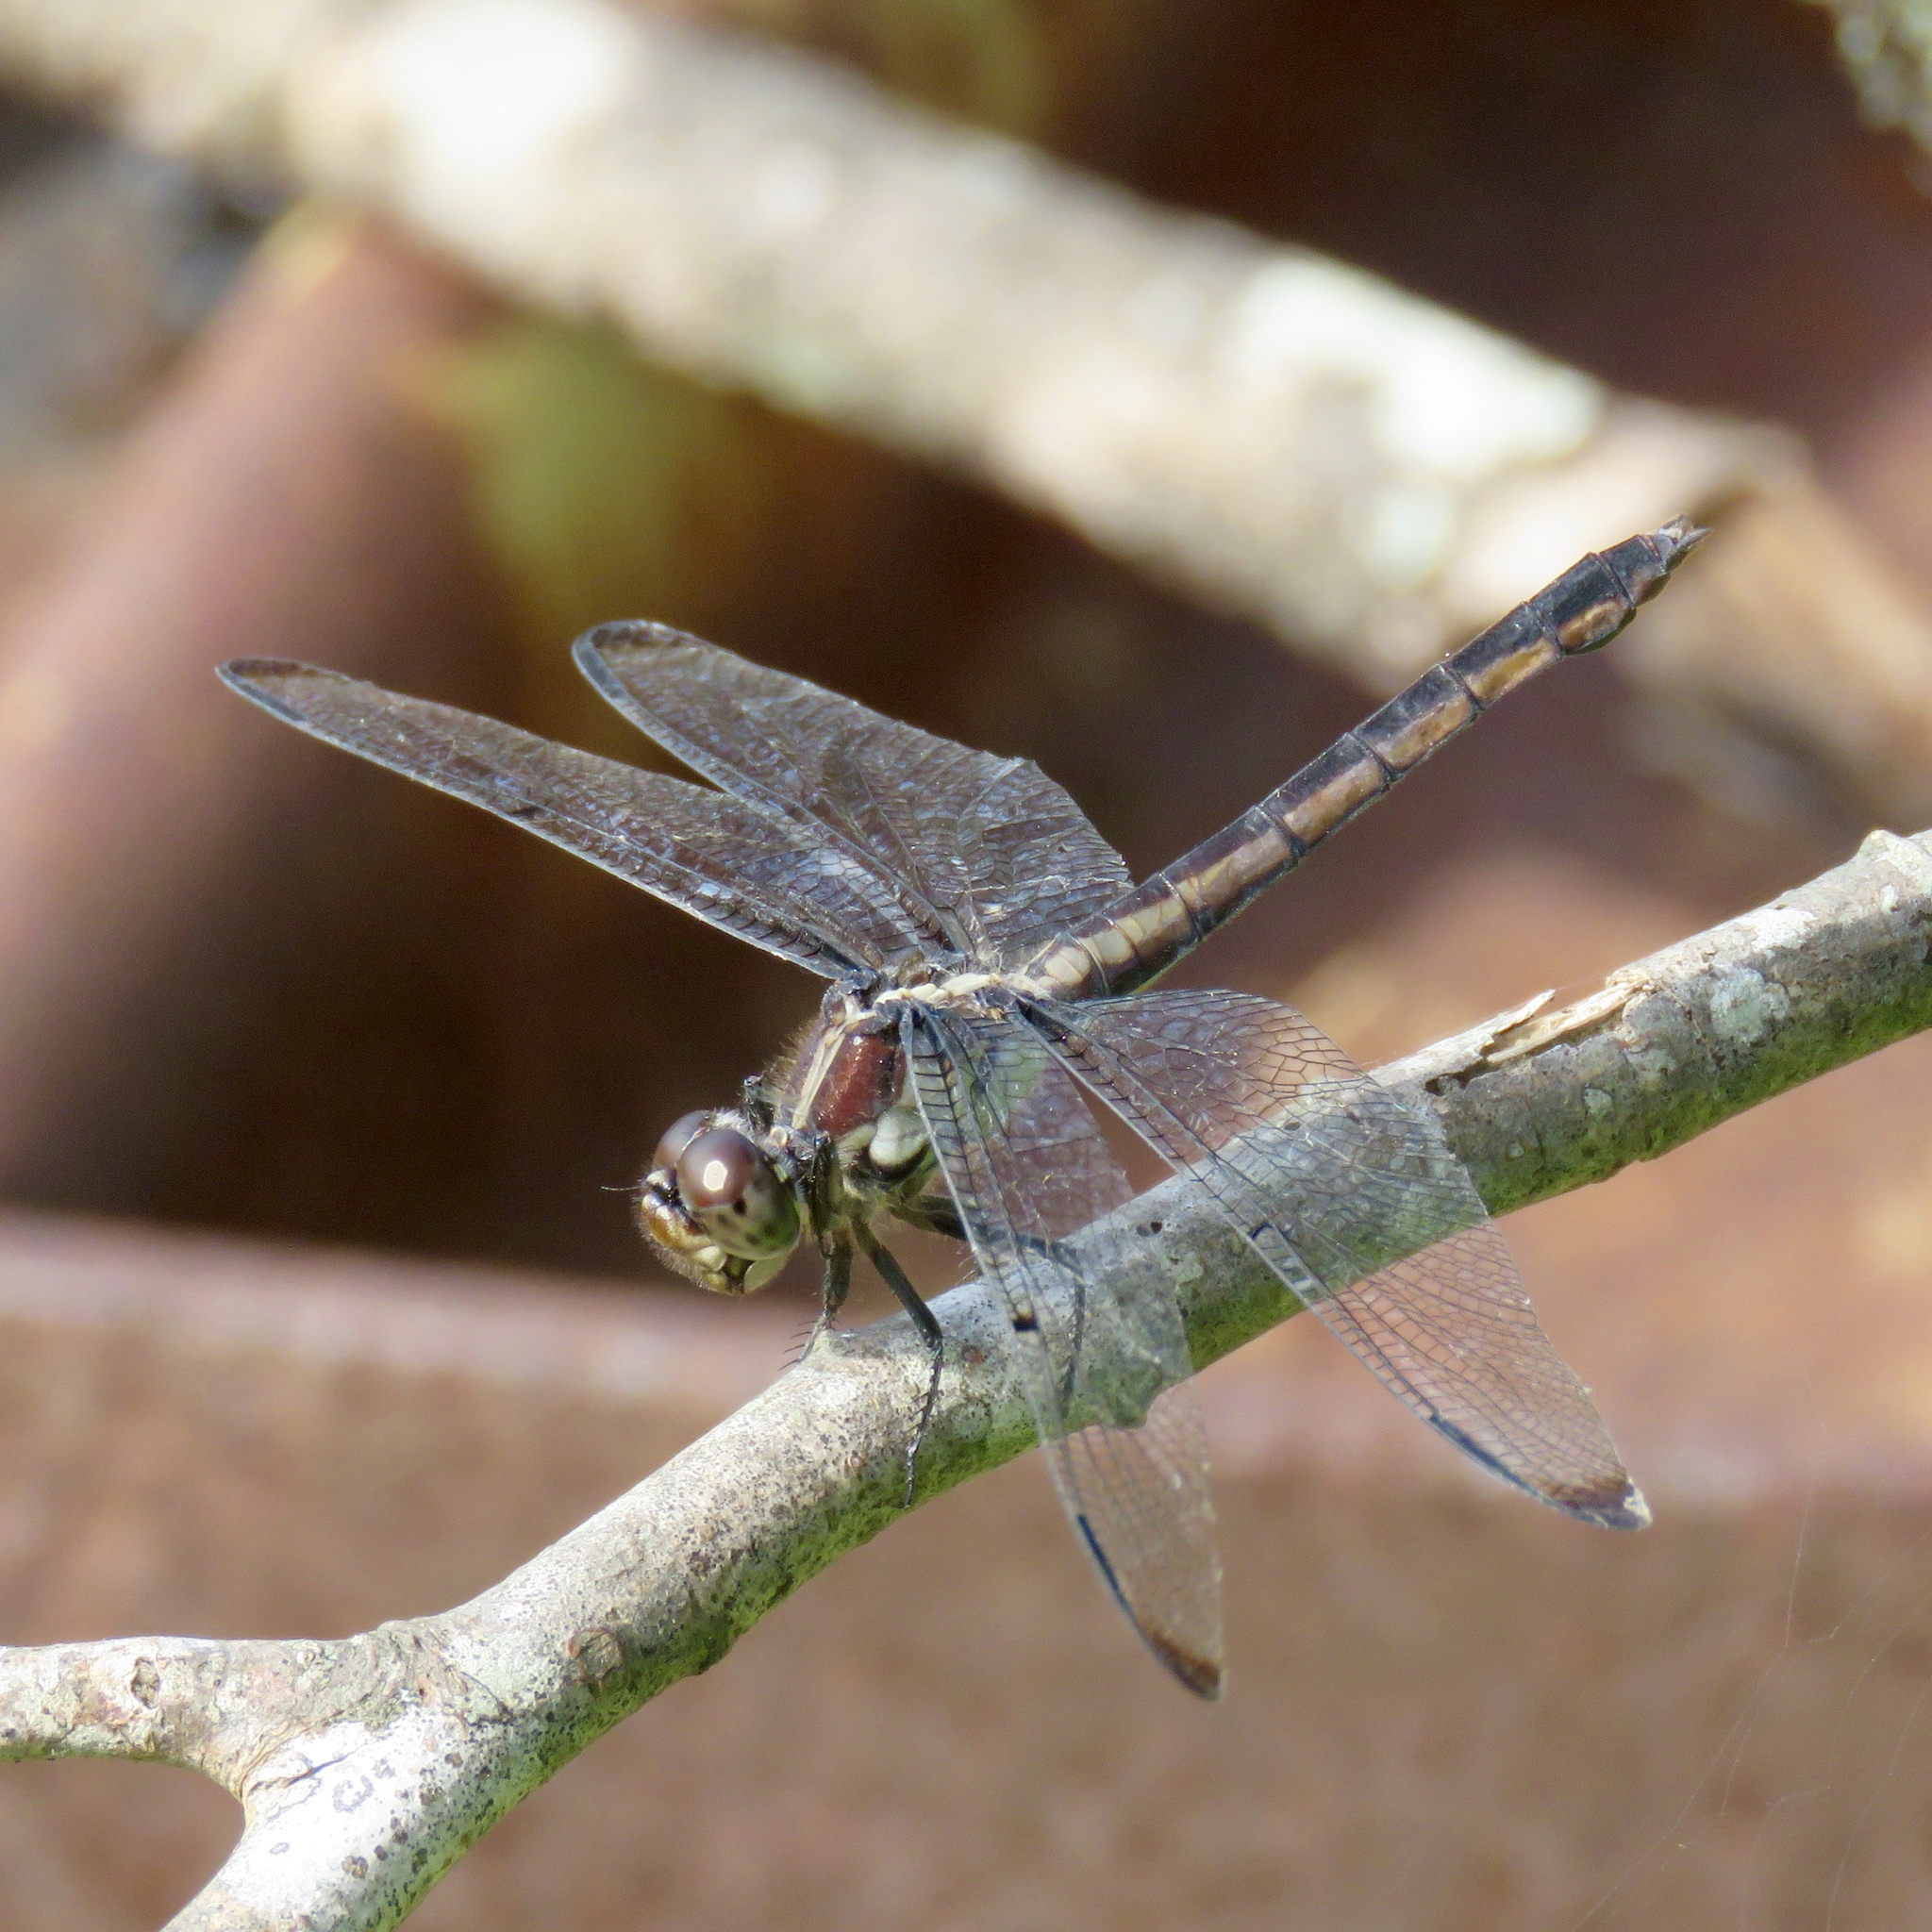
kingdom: Animalia
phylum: Arthropoda
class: Insecta
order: Odonata
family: Libellulidae
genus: Libellula
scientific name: Libellula incesta
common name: Slaty skimmer
